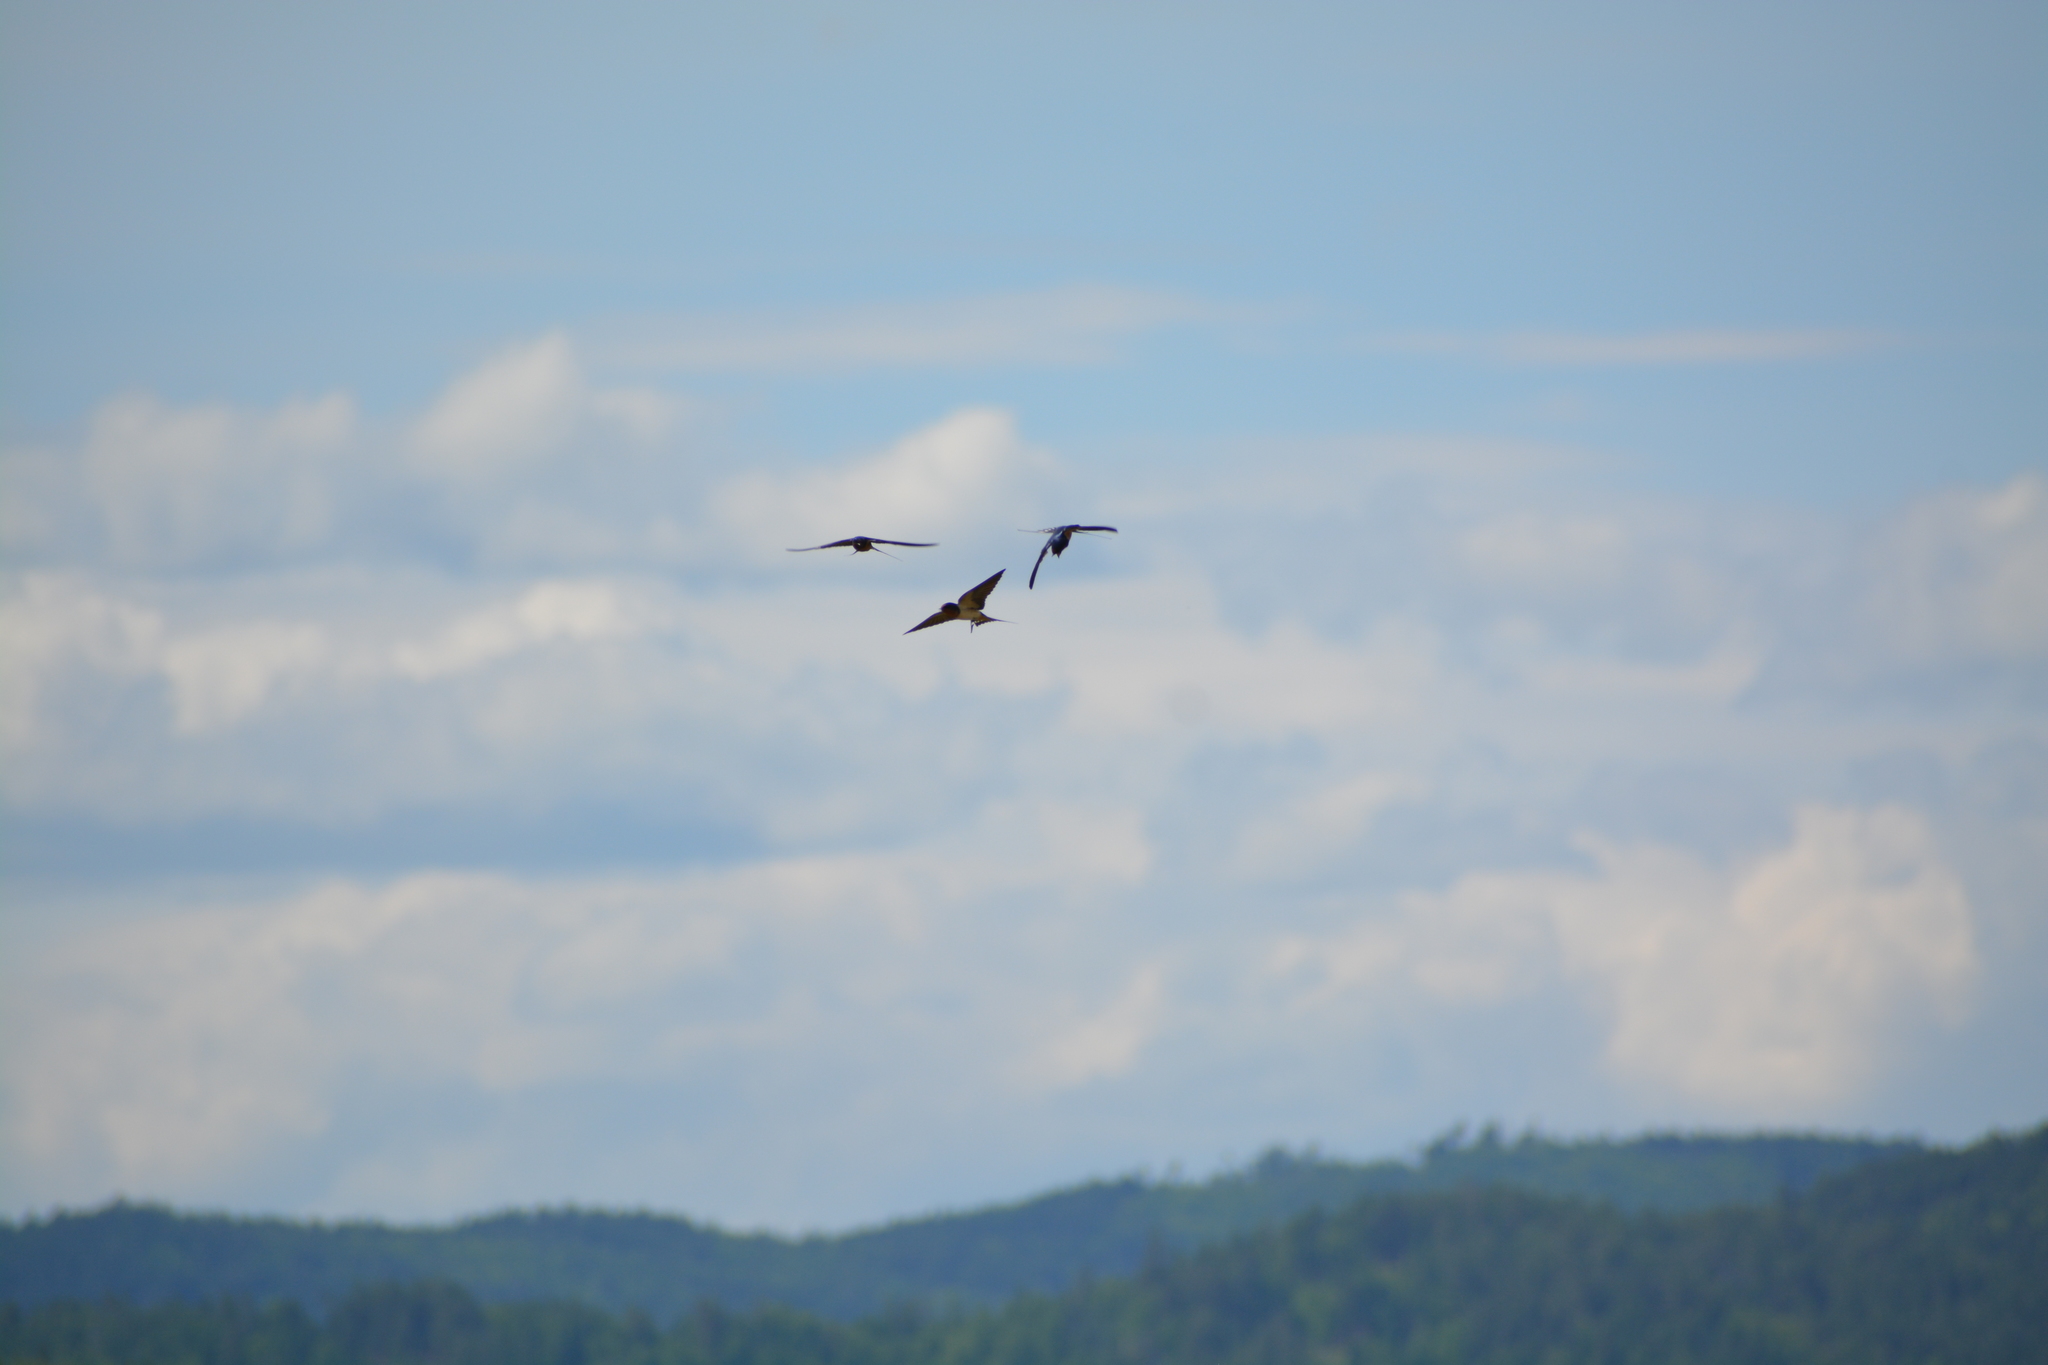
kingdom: Animalia
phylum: Chordata
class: Aves
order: Passeriformes
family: Hirundinidae
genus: Hirundo
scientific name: Hirundo rustica
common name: Barn swallow
